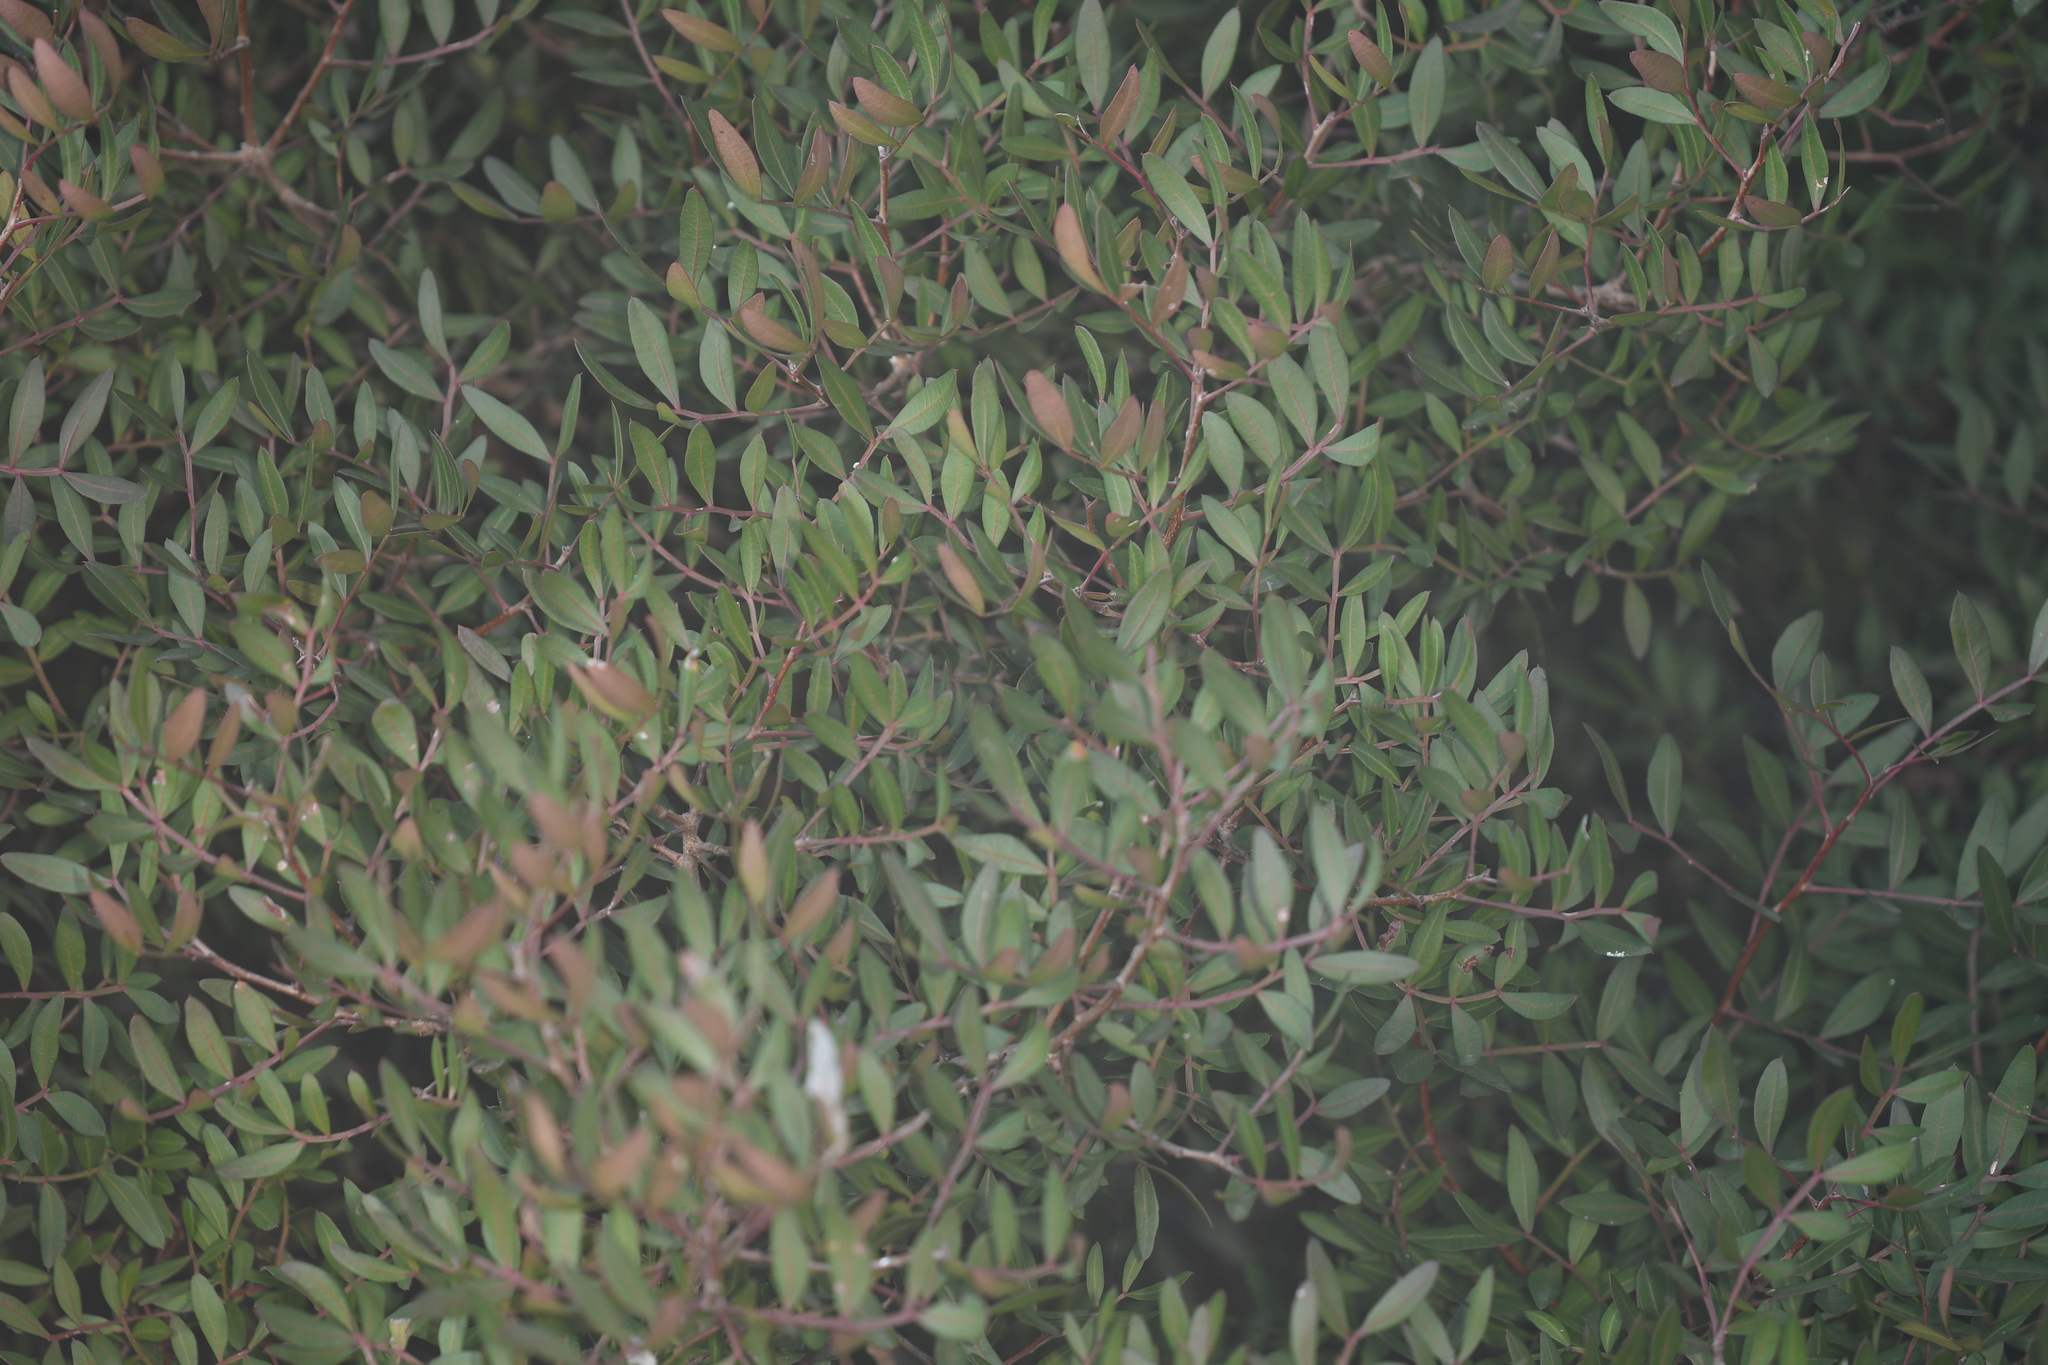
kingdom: Plantae
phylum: Tracheophyta
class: Magnoliopsida
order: Sapindales
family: Anacardiaceae
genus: Pistacia
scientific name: Pistacia lentiscus
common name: Lentisk
